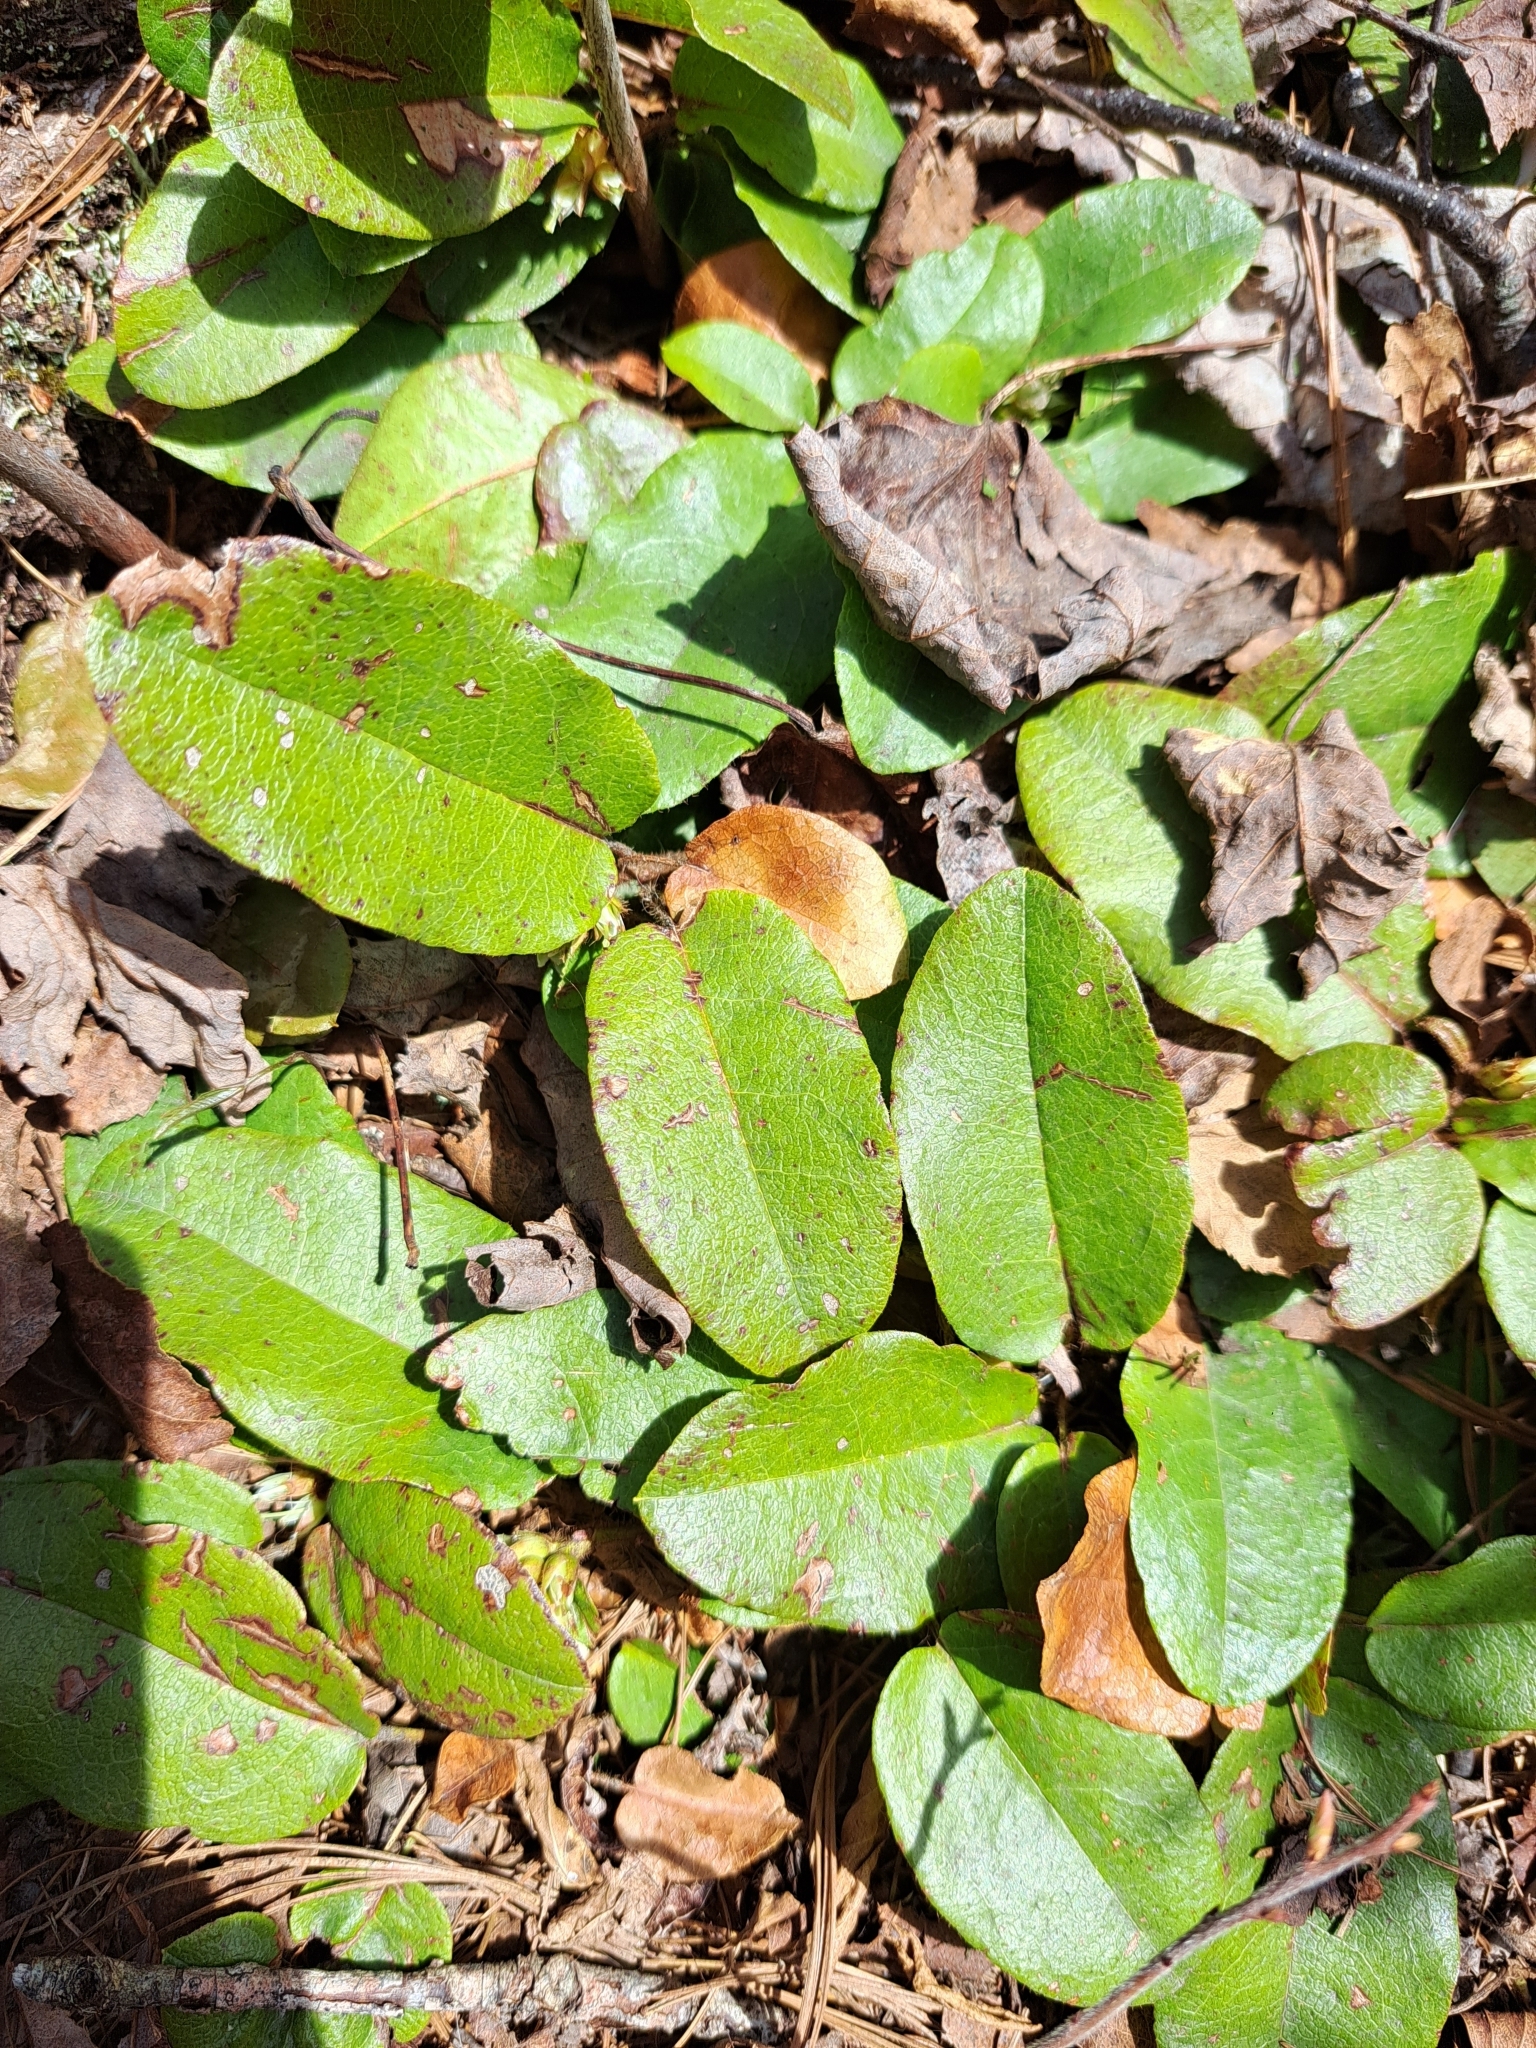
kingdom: Plantae
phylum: Tracheophyta
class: Magnoliopsida
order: Ericales
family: Ericaceae
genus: Epigaea
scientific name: Epigaea repens
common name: Gravelroot
